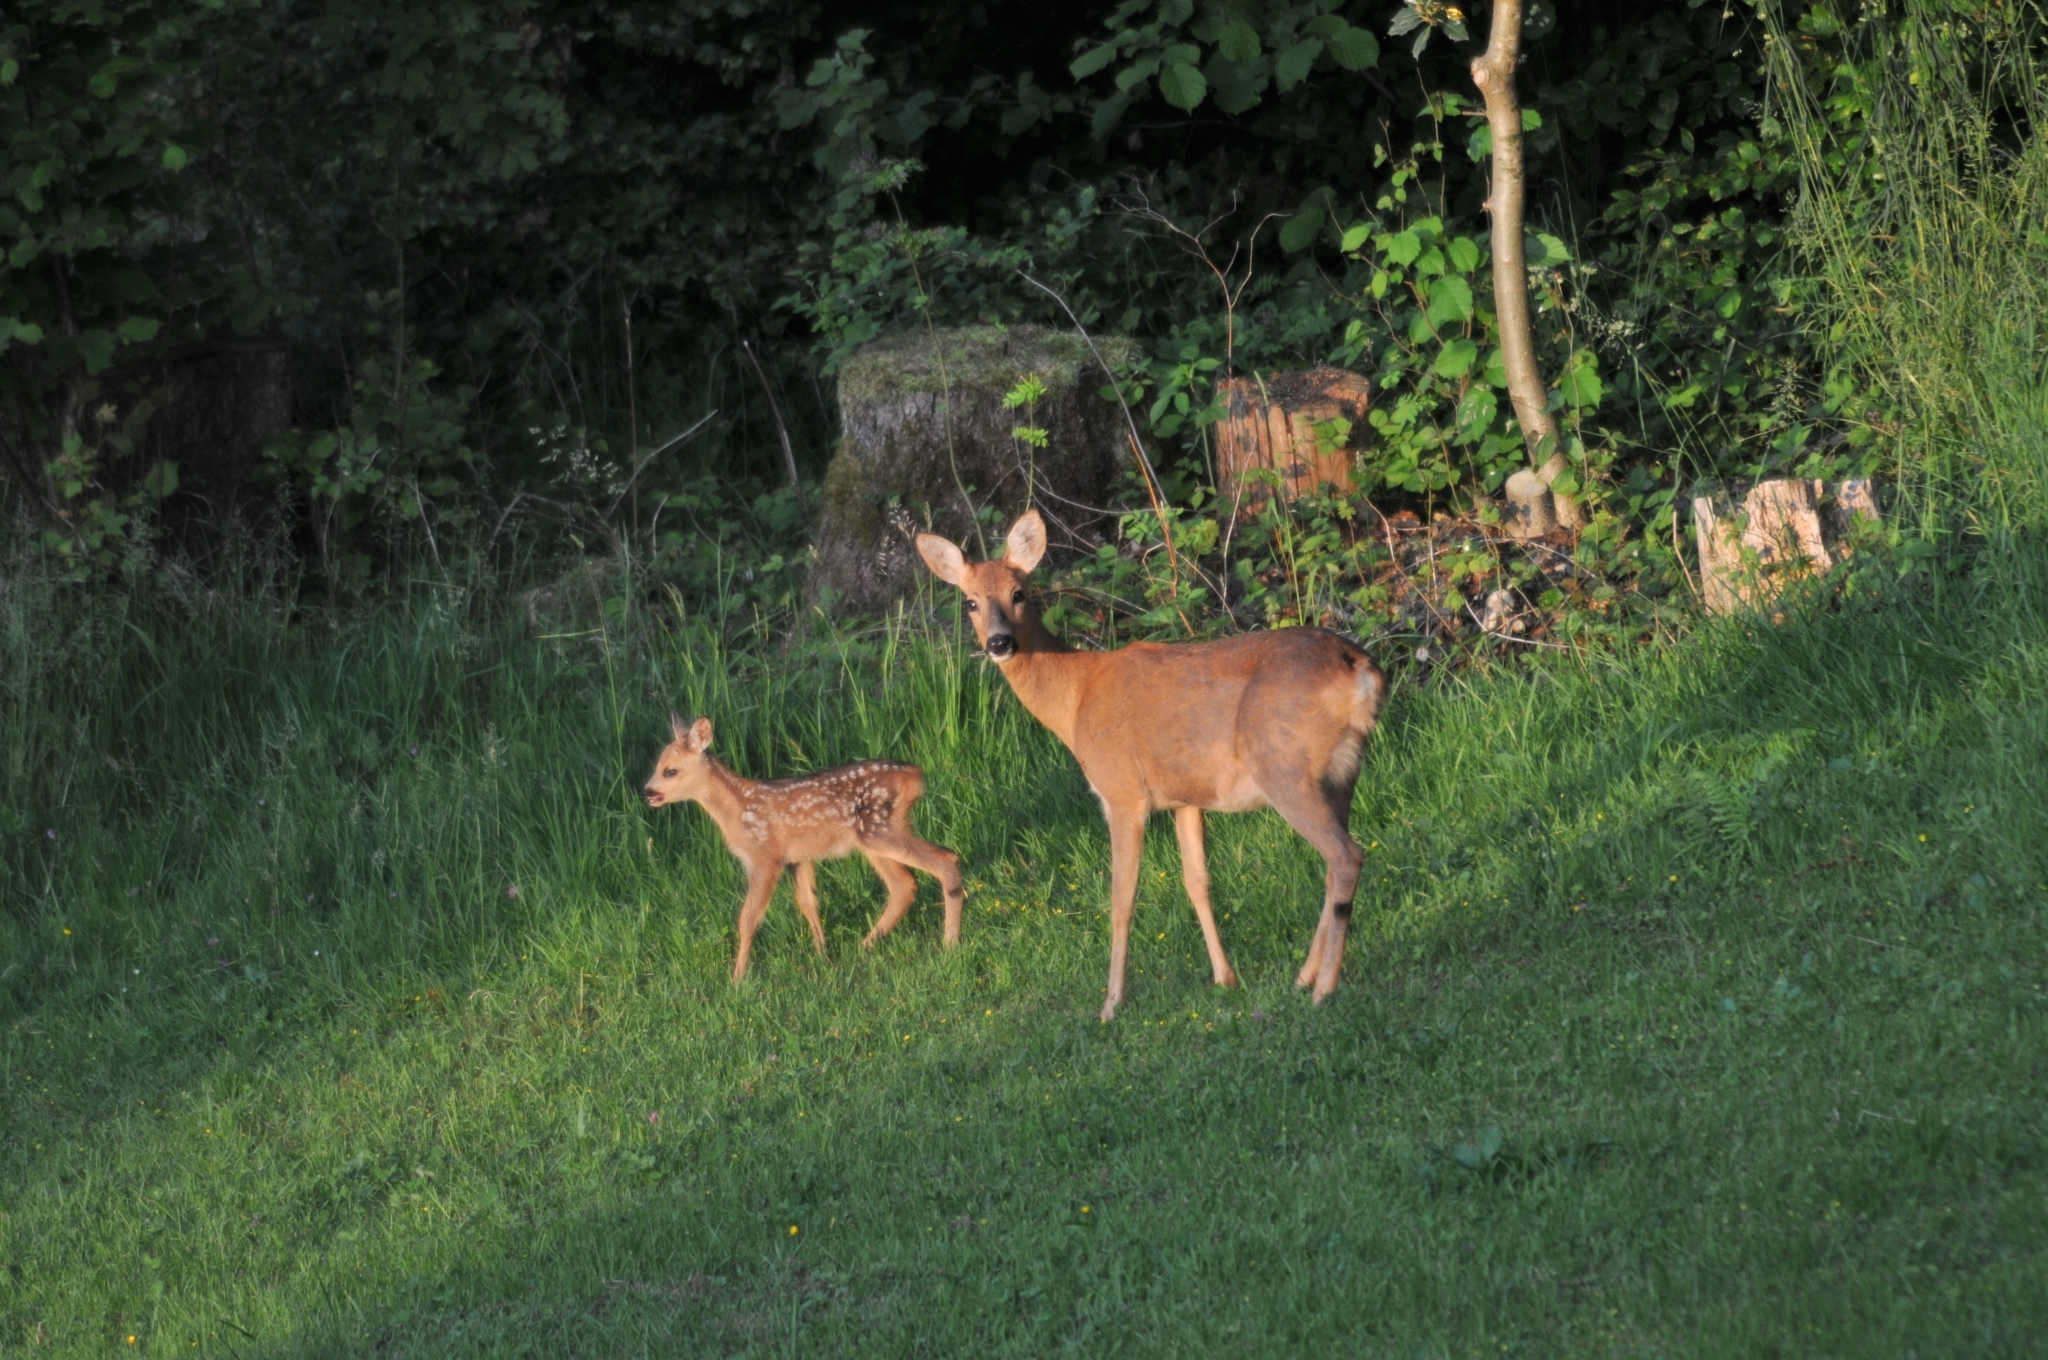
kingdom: Animalia
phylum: Chordata
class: Mammalia
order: Artiodactyla
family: Cervidae
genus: Capreolus
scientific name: Capreolus capreolus
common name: Western roe deer
